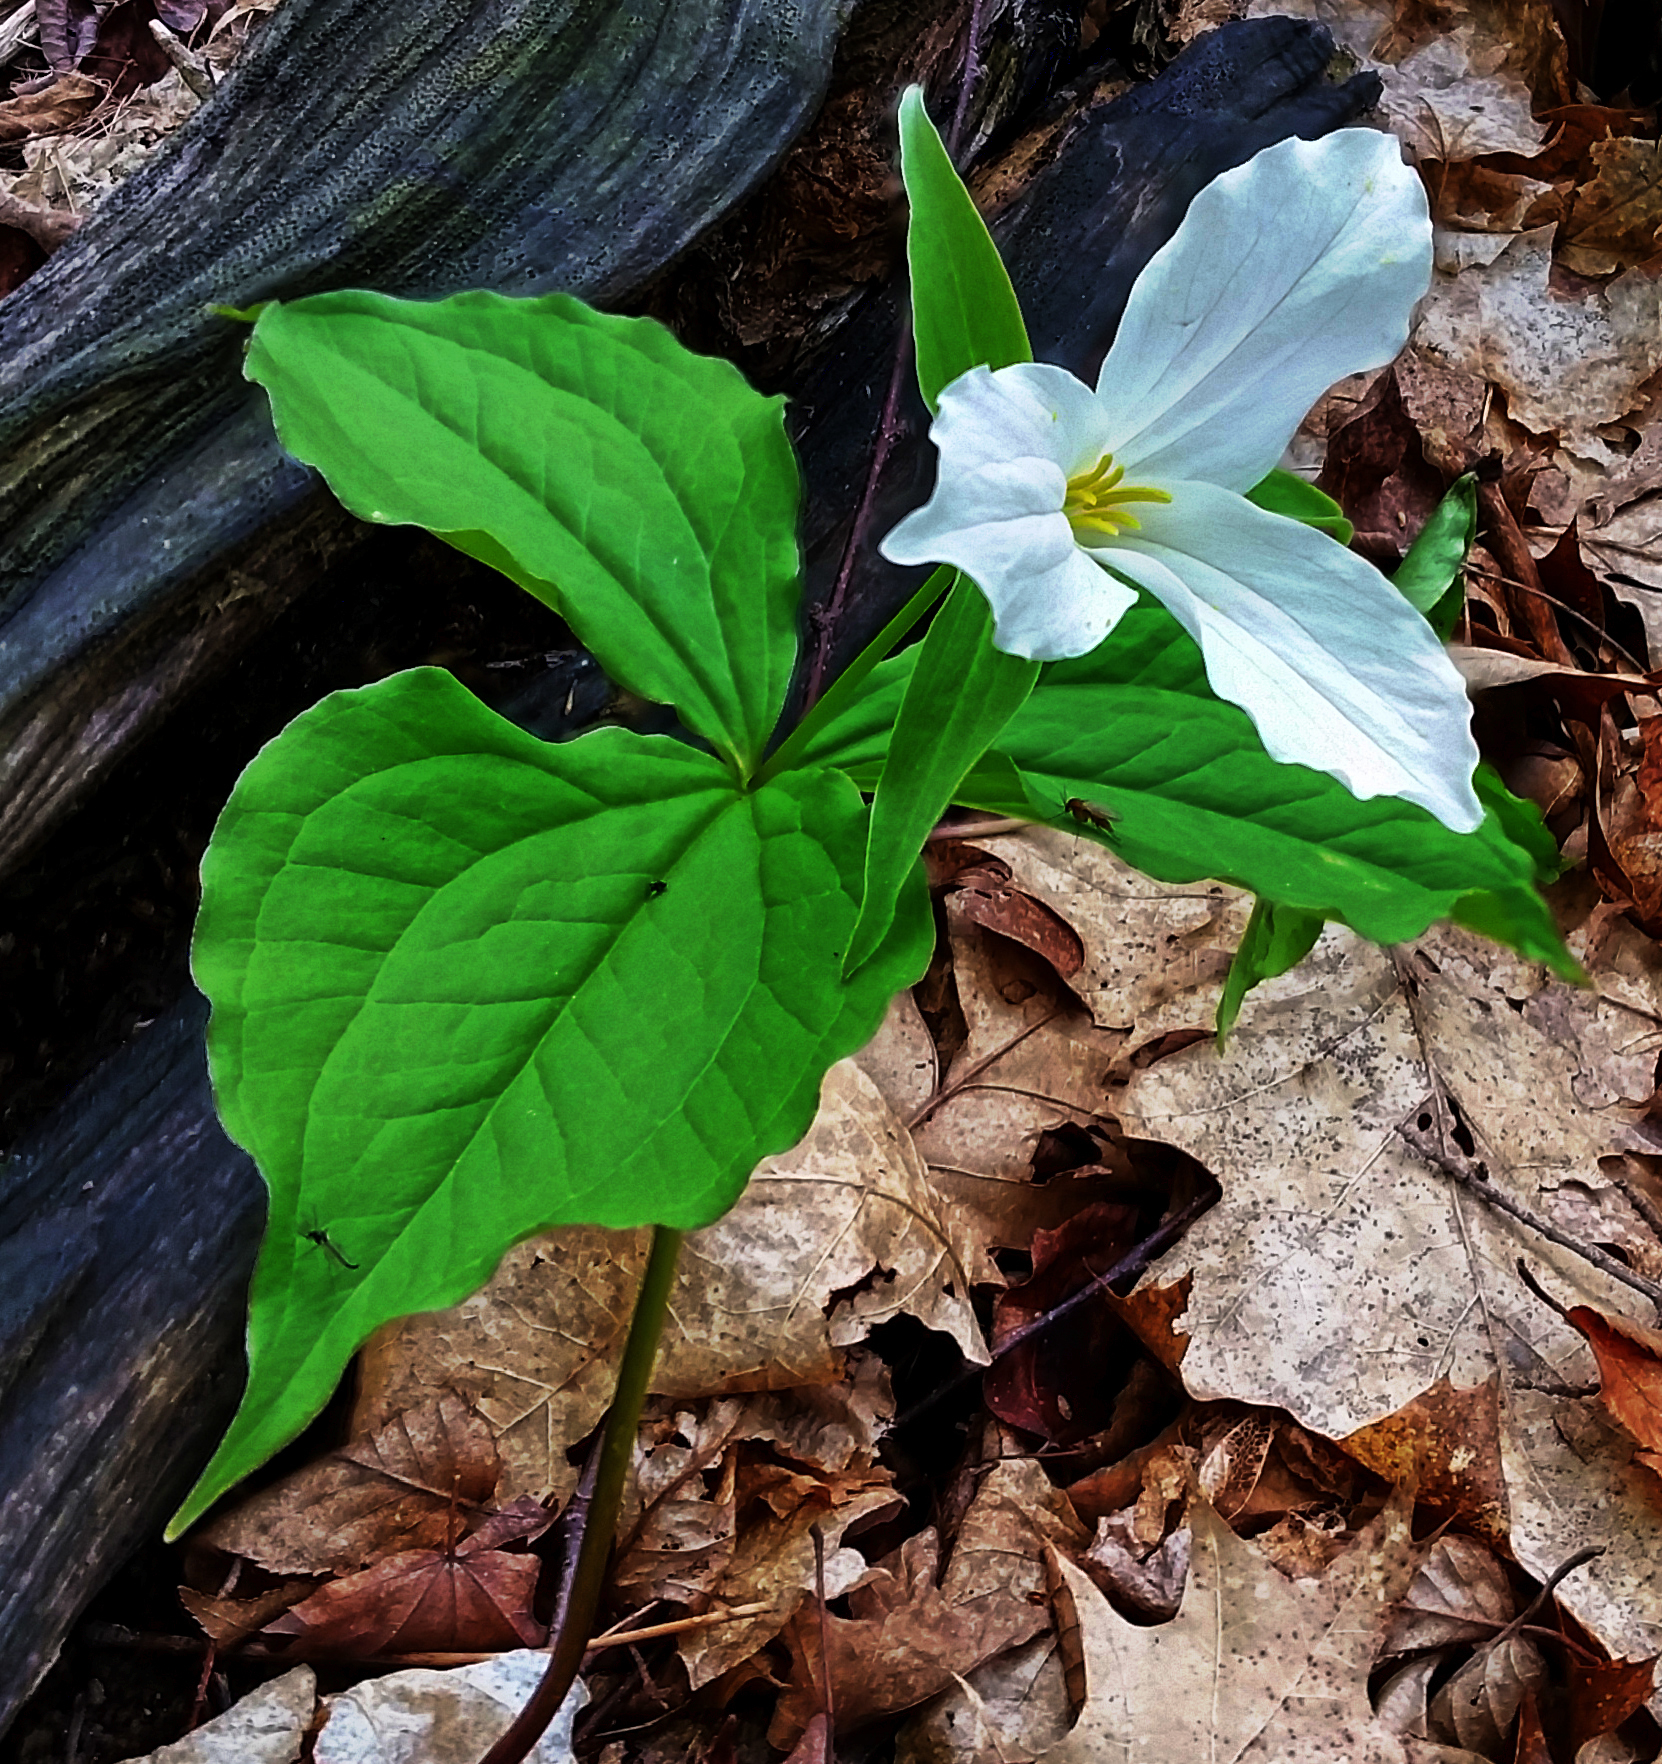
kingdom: Plantae
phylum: Tracheophyta
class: Liliopsida
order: Liliales
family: Melanthiaceae
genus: Trillium
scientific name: Trillium grandiflorum
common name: Great white trillium
